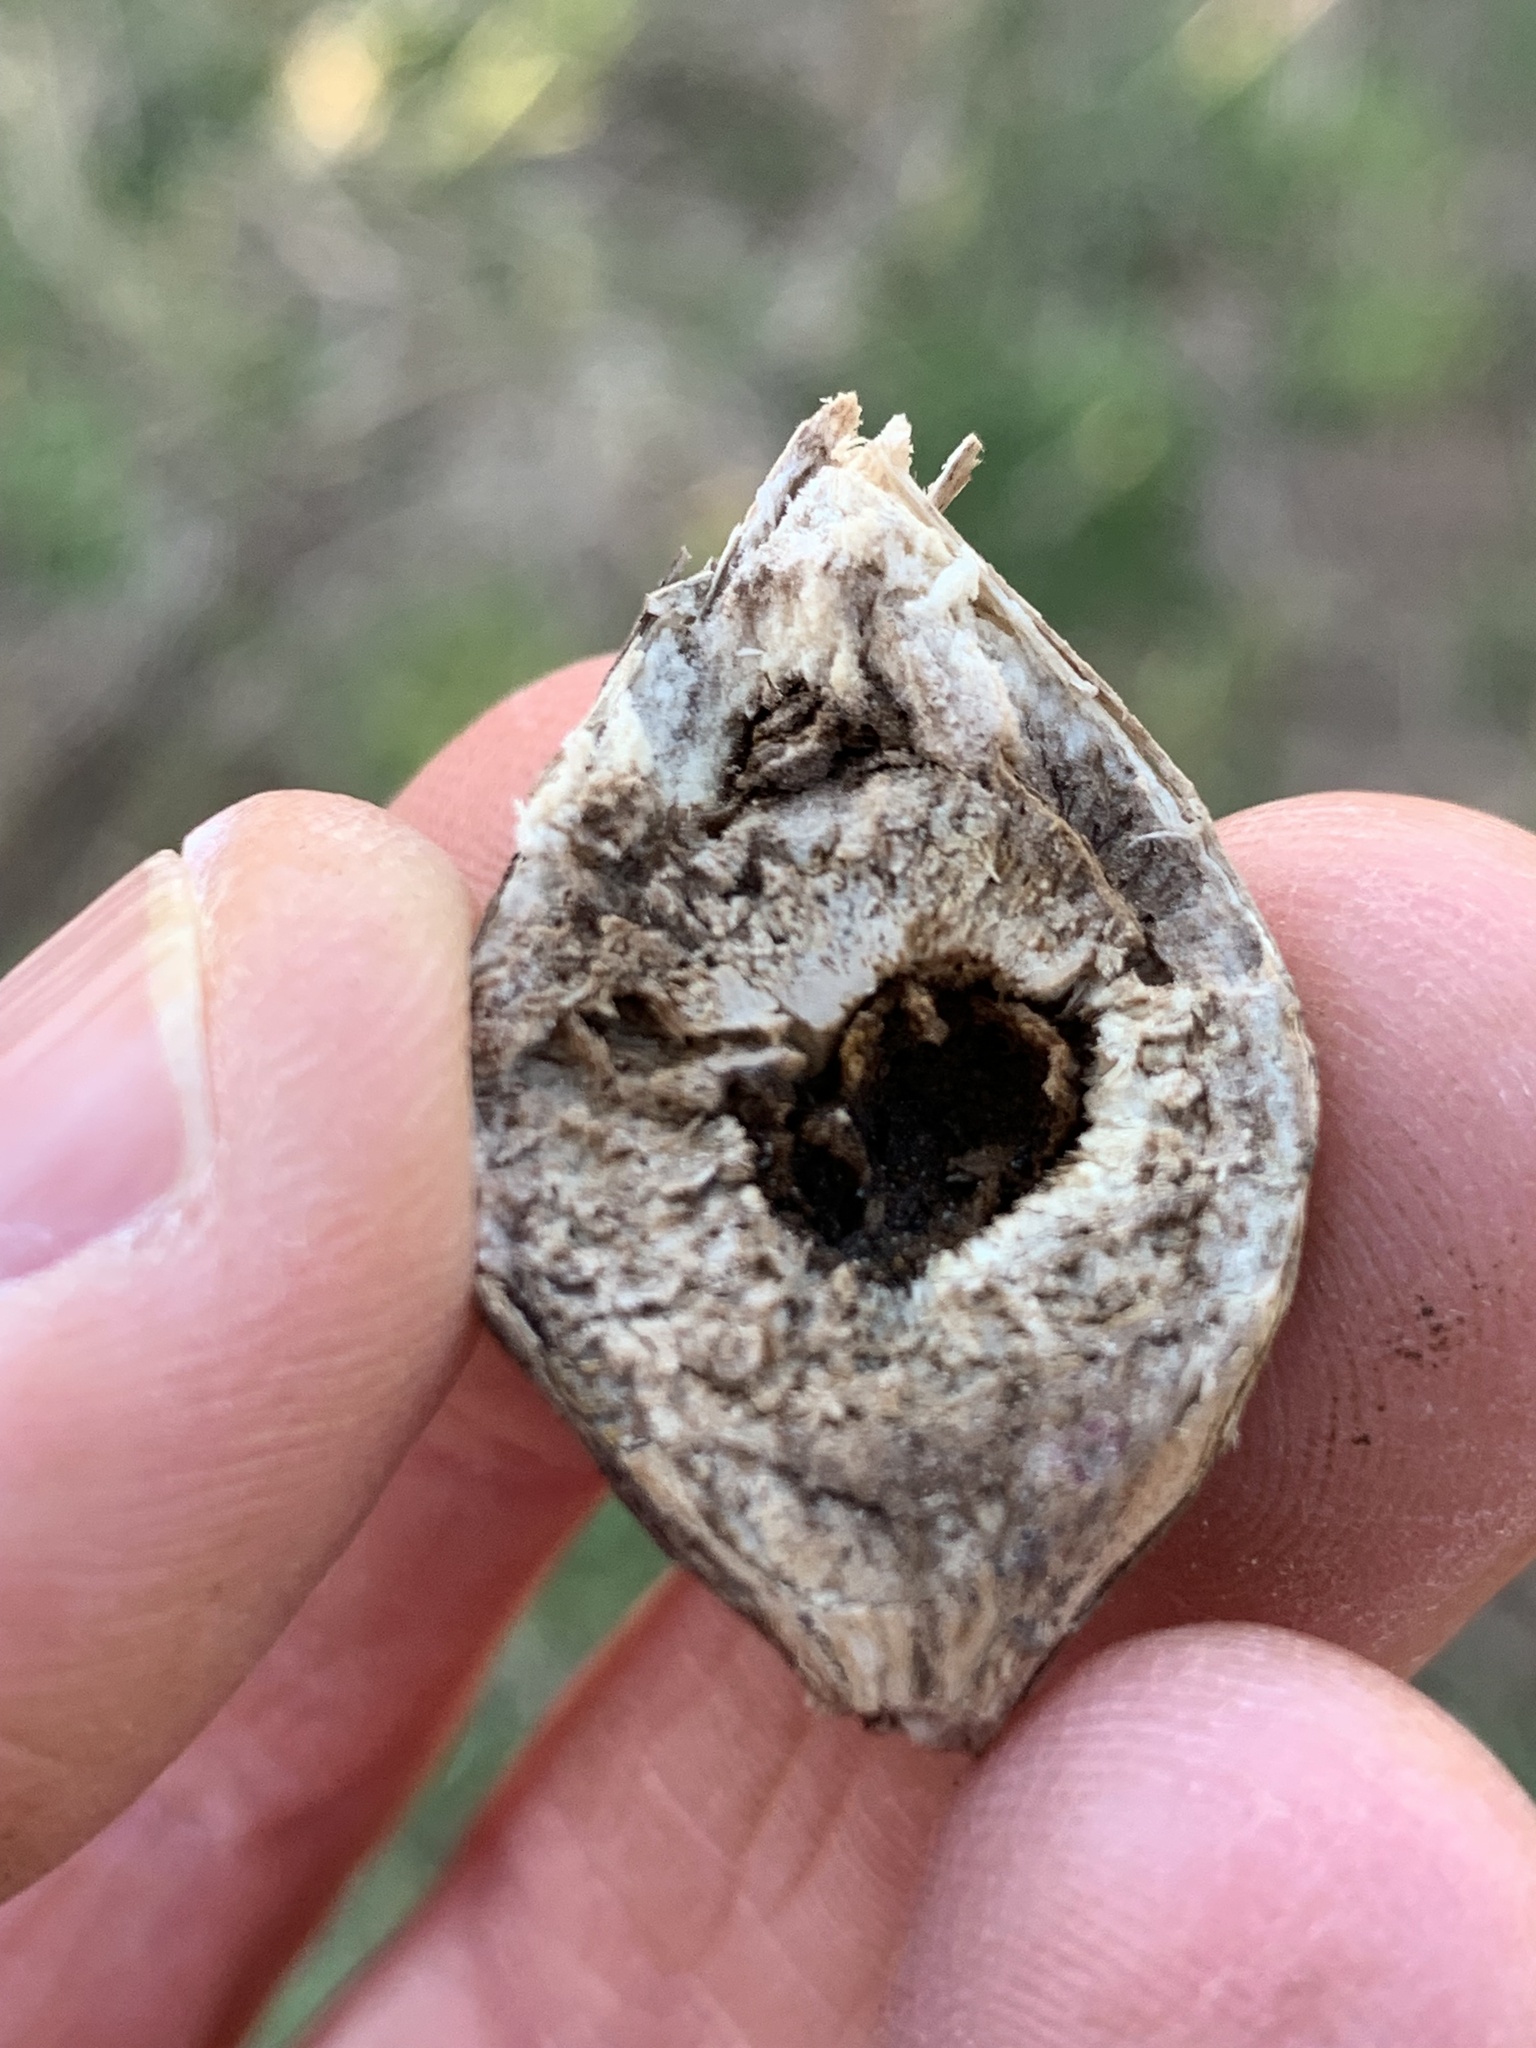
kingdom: Animalia
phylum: Arthropoda
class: Insecta
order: Diptera
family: Tephritidae
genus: Eurosta
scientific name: Eurosta solidaginis
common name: Goldenrod gall fly
